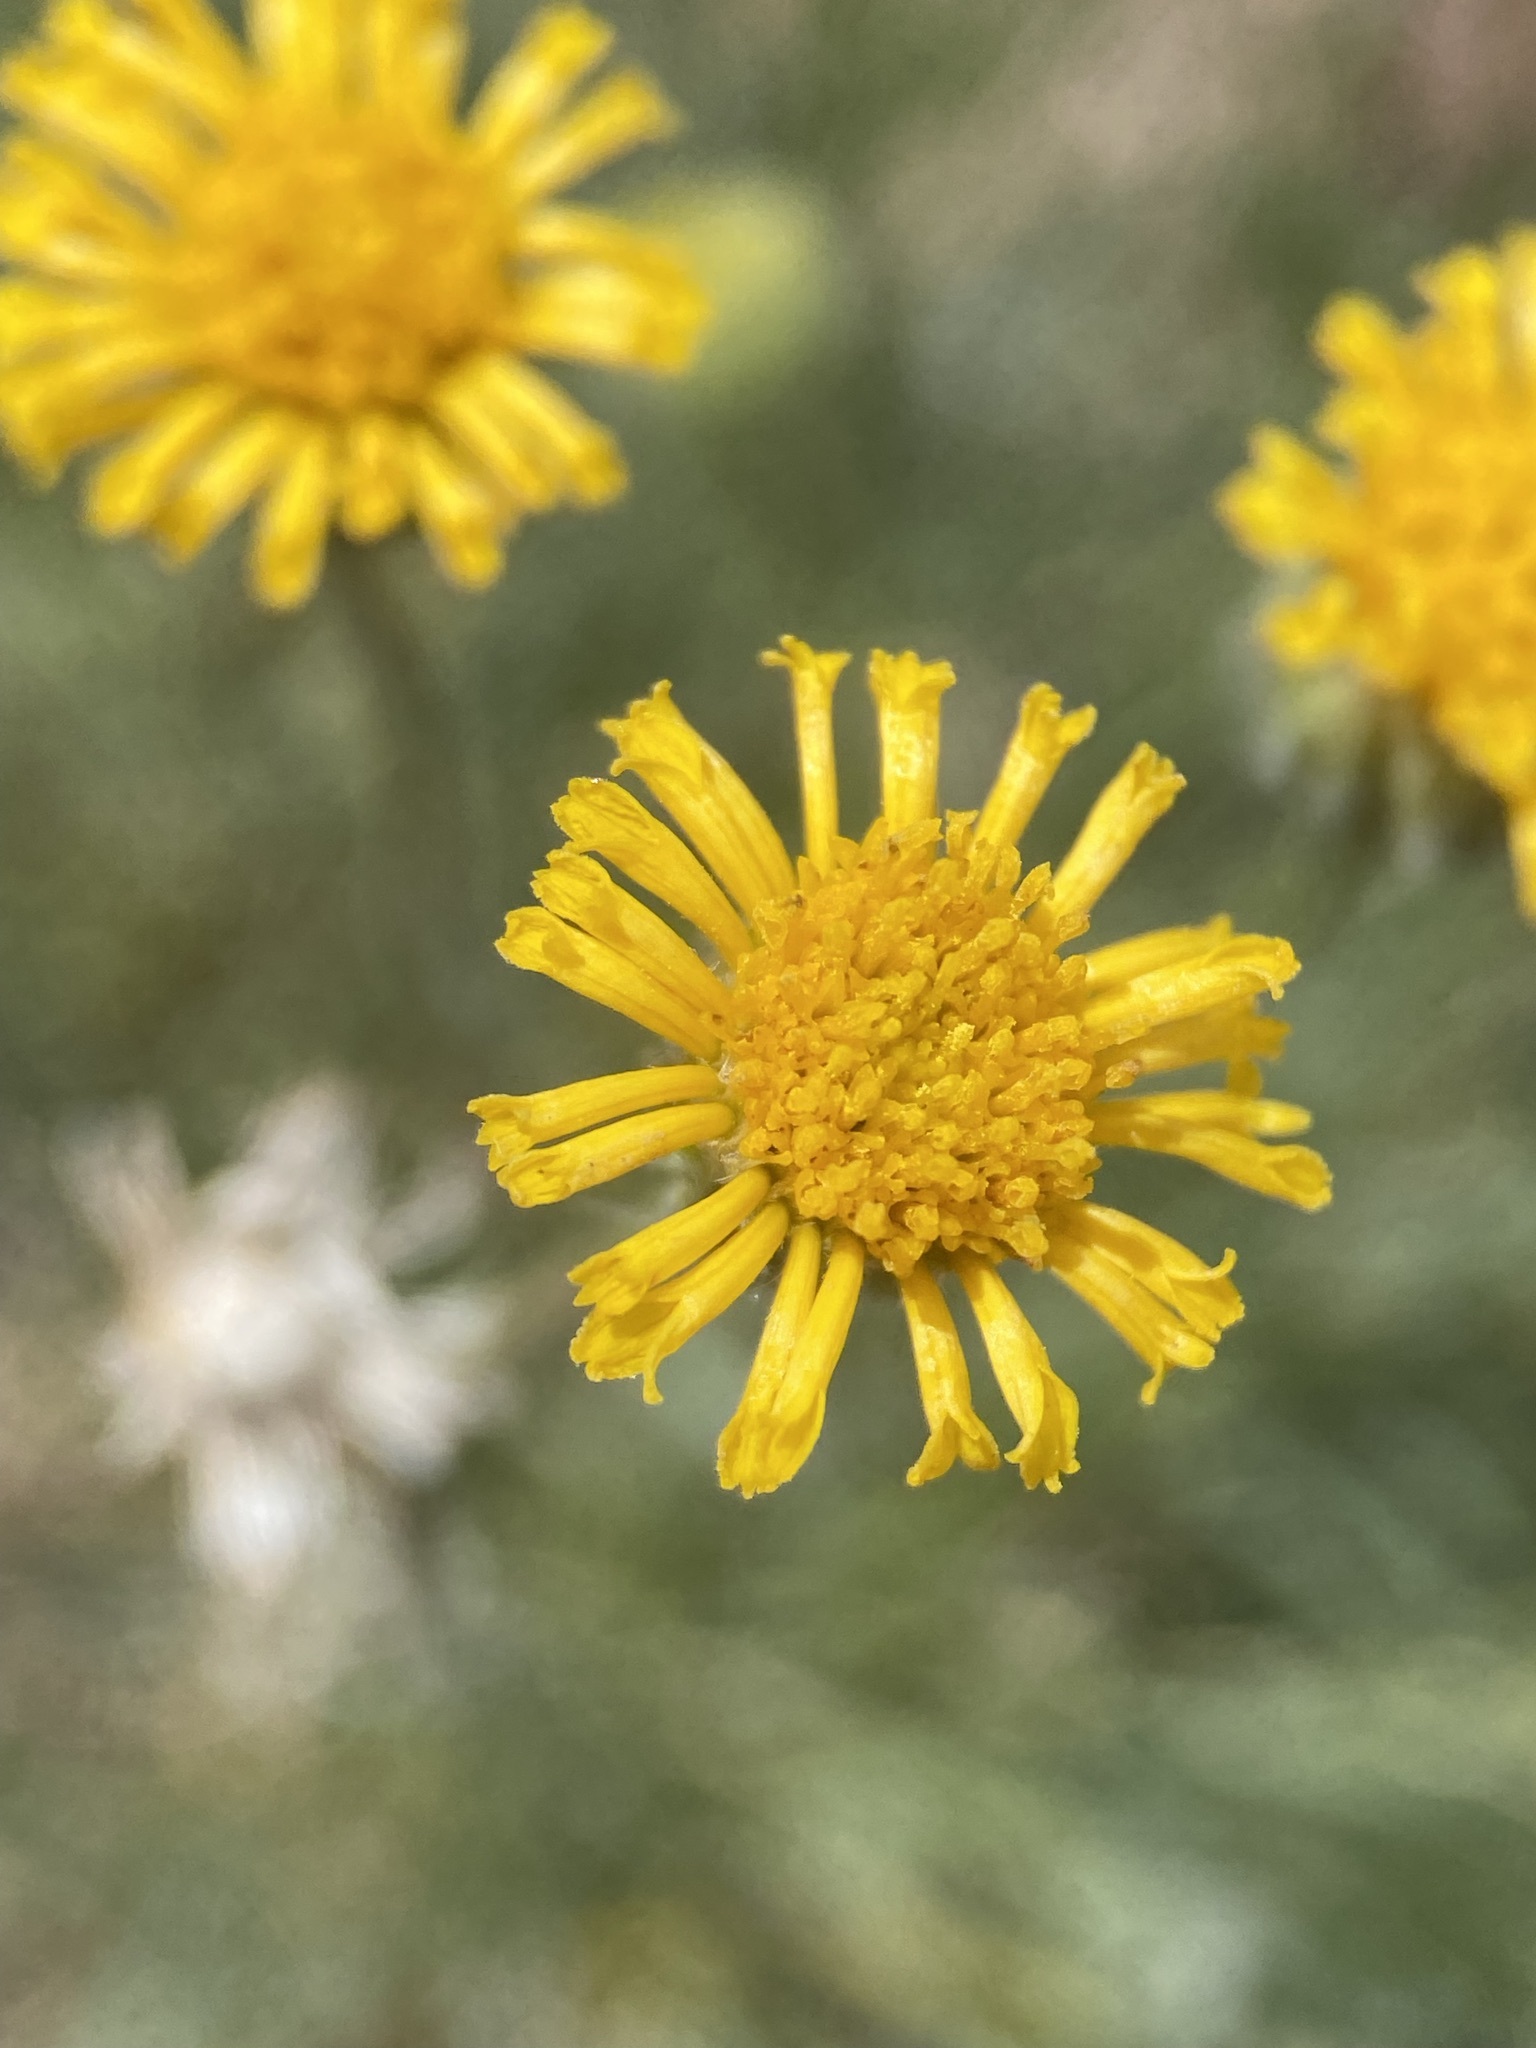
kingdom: Plantae
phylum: Tracheophyta
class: Magnoliopsida
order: Asterales
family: Asteraceae
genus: Erigeron
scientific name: Erigeron linearis
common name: Desert yellow fleabane
